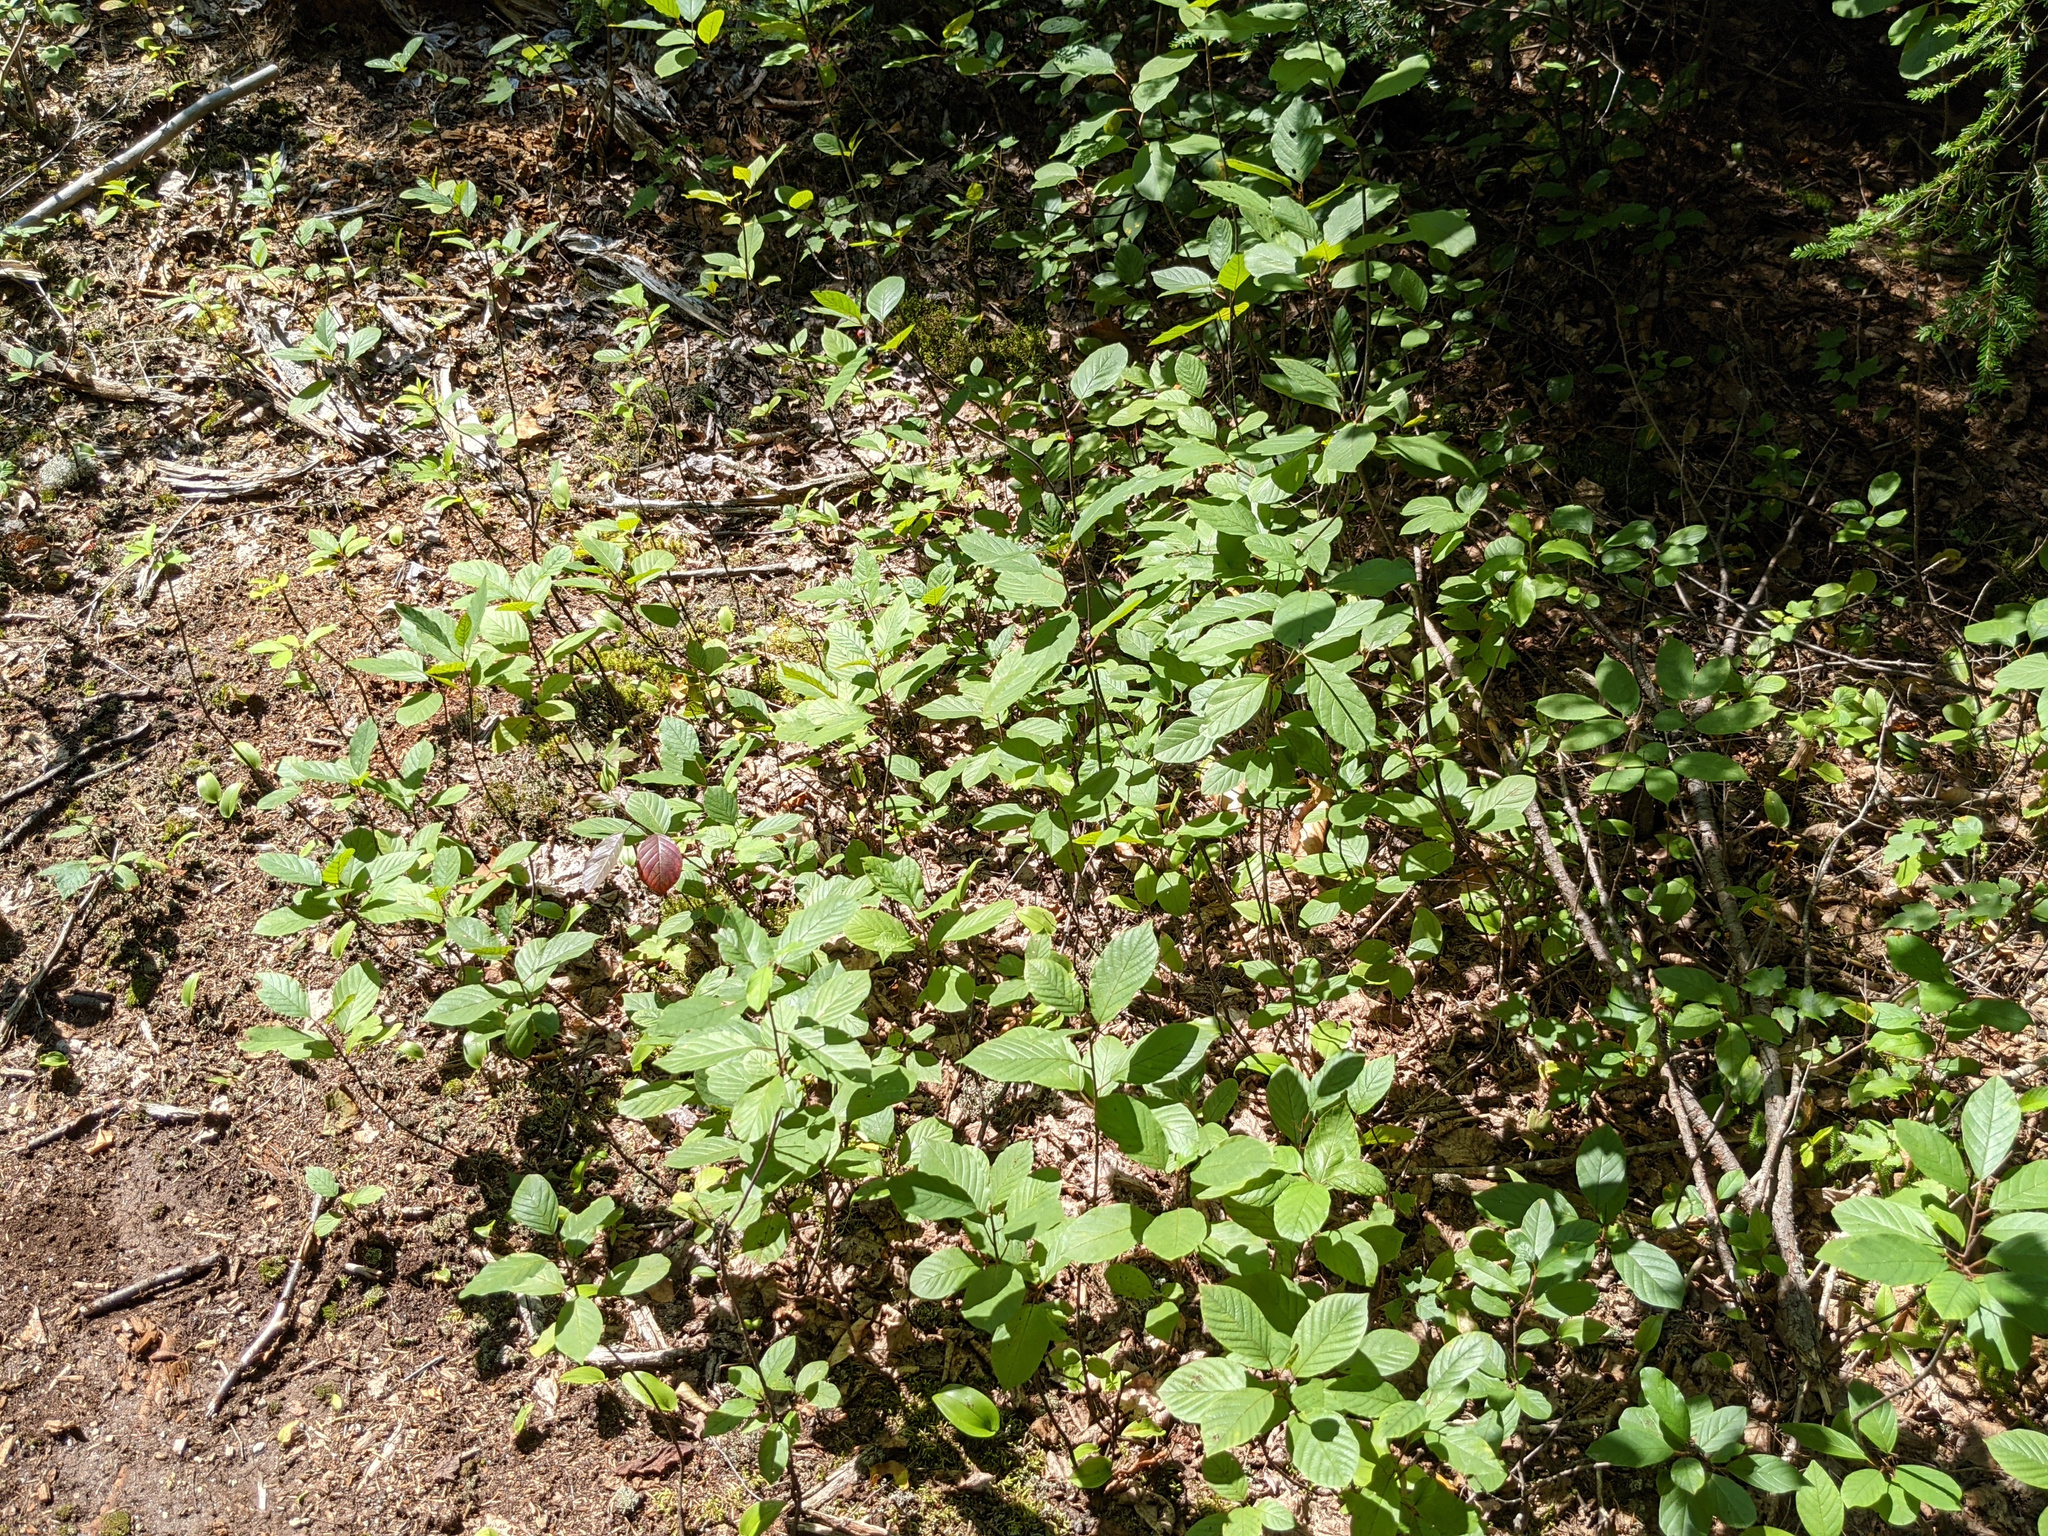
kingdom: Plantae
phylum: Tracheophyta
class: Magnoliopsida
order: Rosales
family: Rhamnaceae
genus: Frangula
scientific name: Frangula alnus
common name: Alder buckthorn
